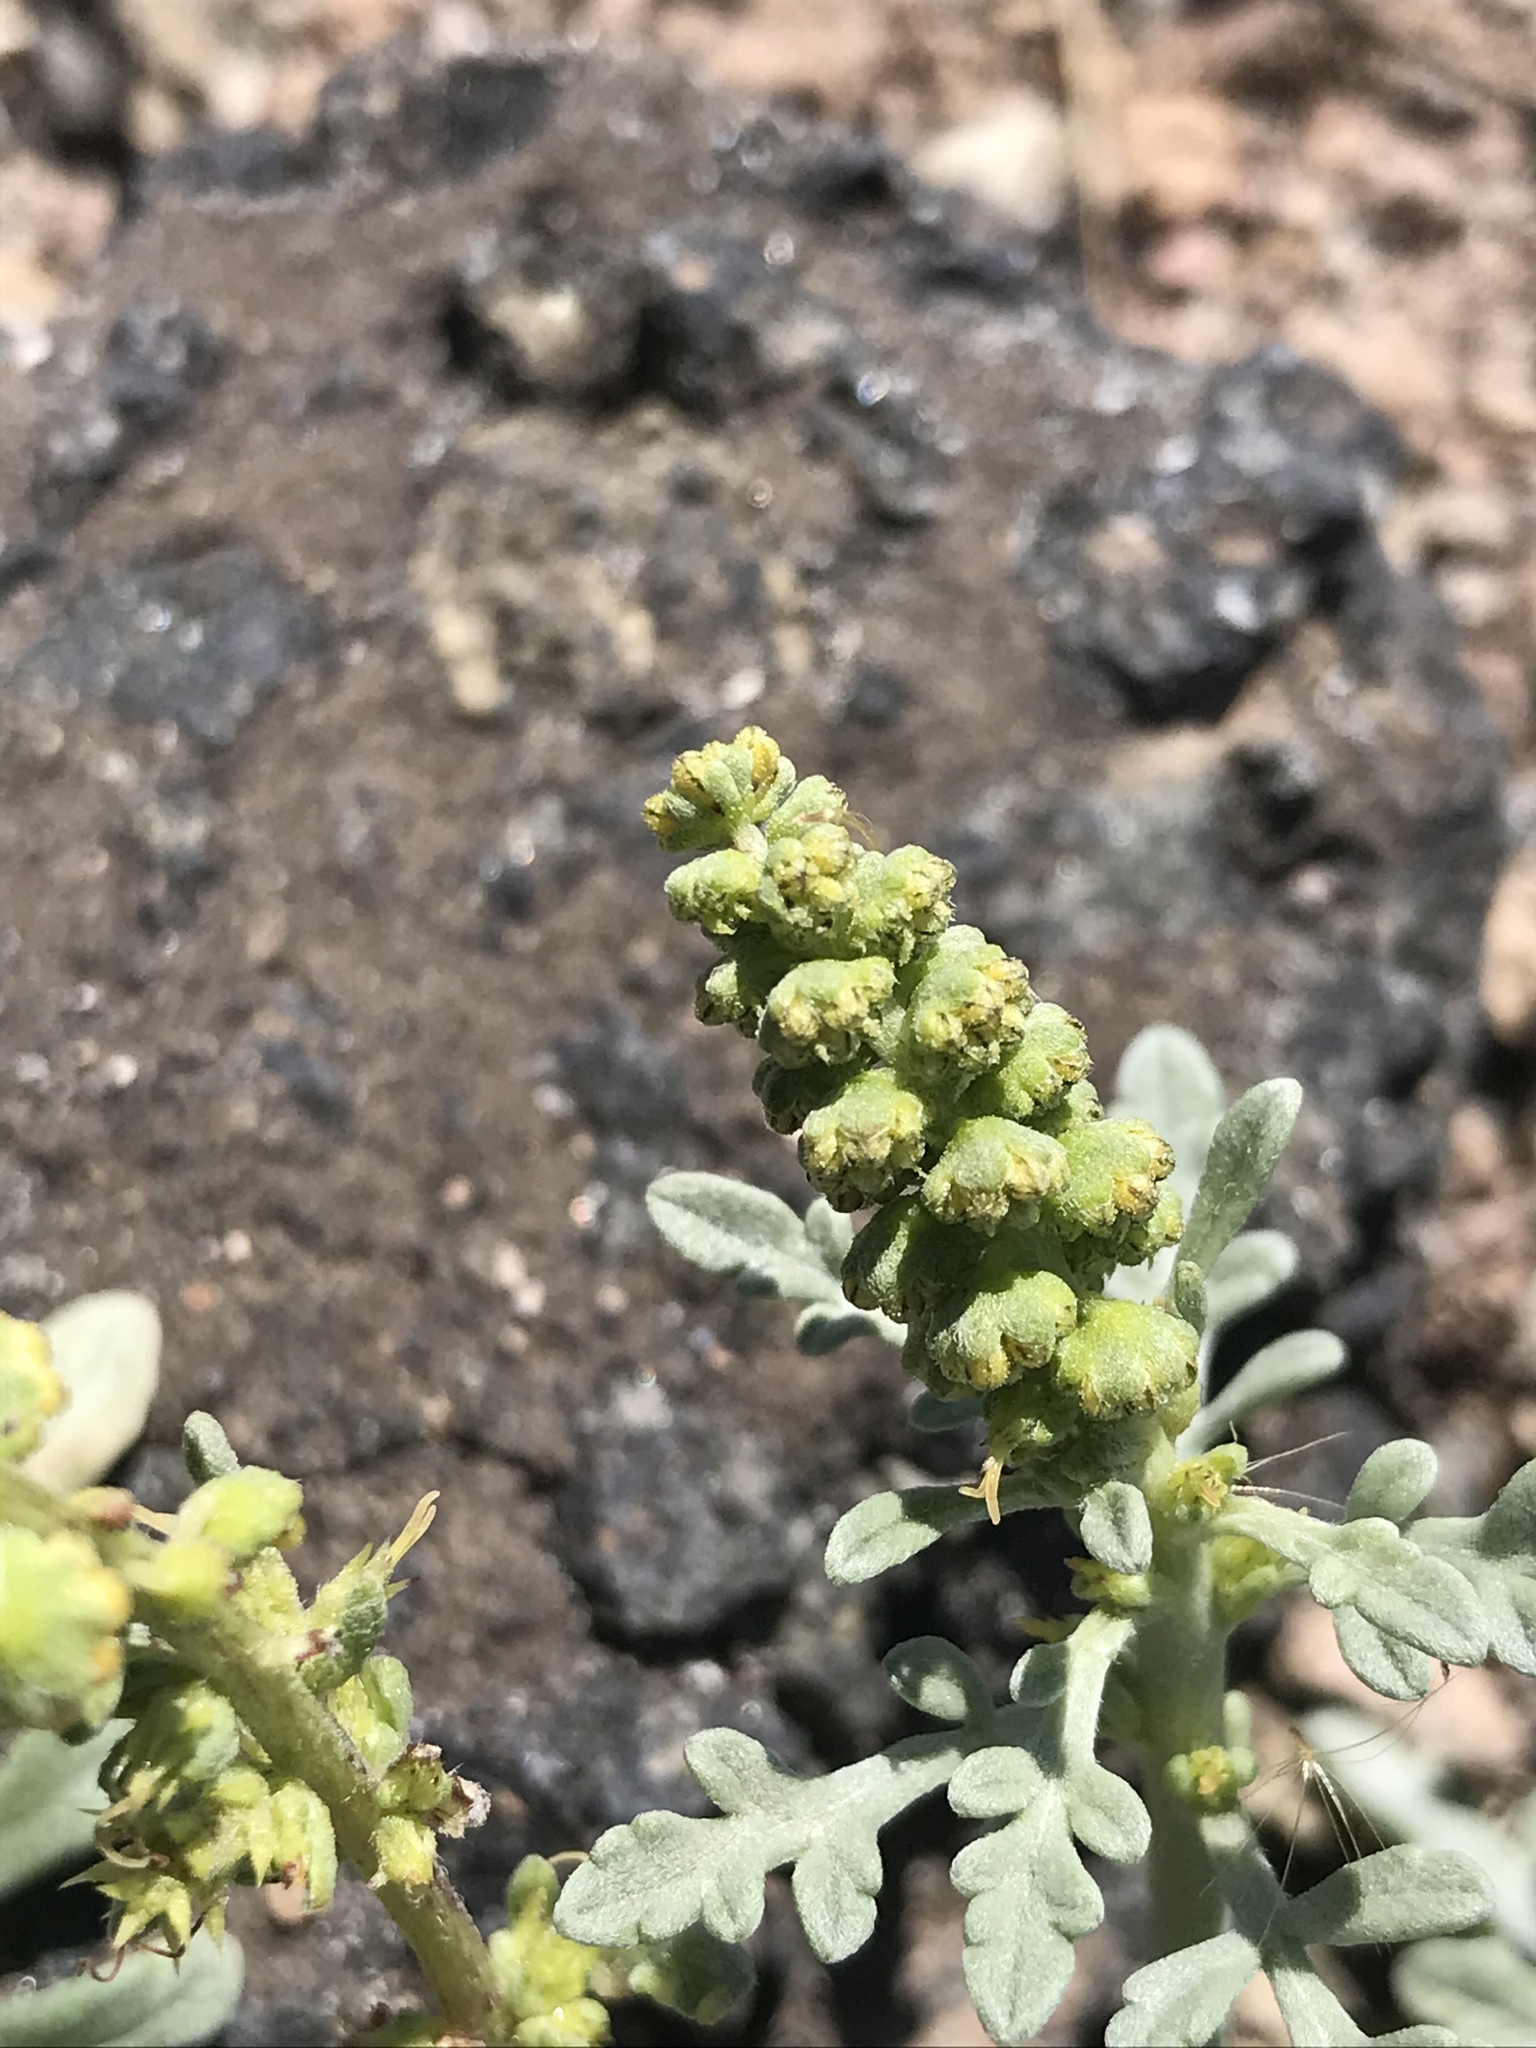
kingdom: Plantae
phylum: Tracheophyta
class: Magnoliopsida
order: Asterales
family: Asteraceae
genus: Ambrosia
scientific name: Ambrosia chamissonis
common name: Beachbur
